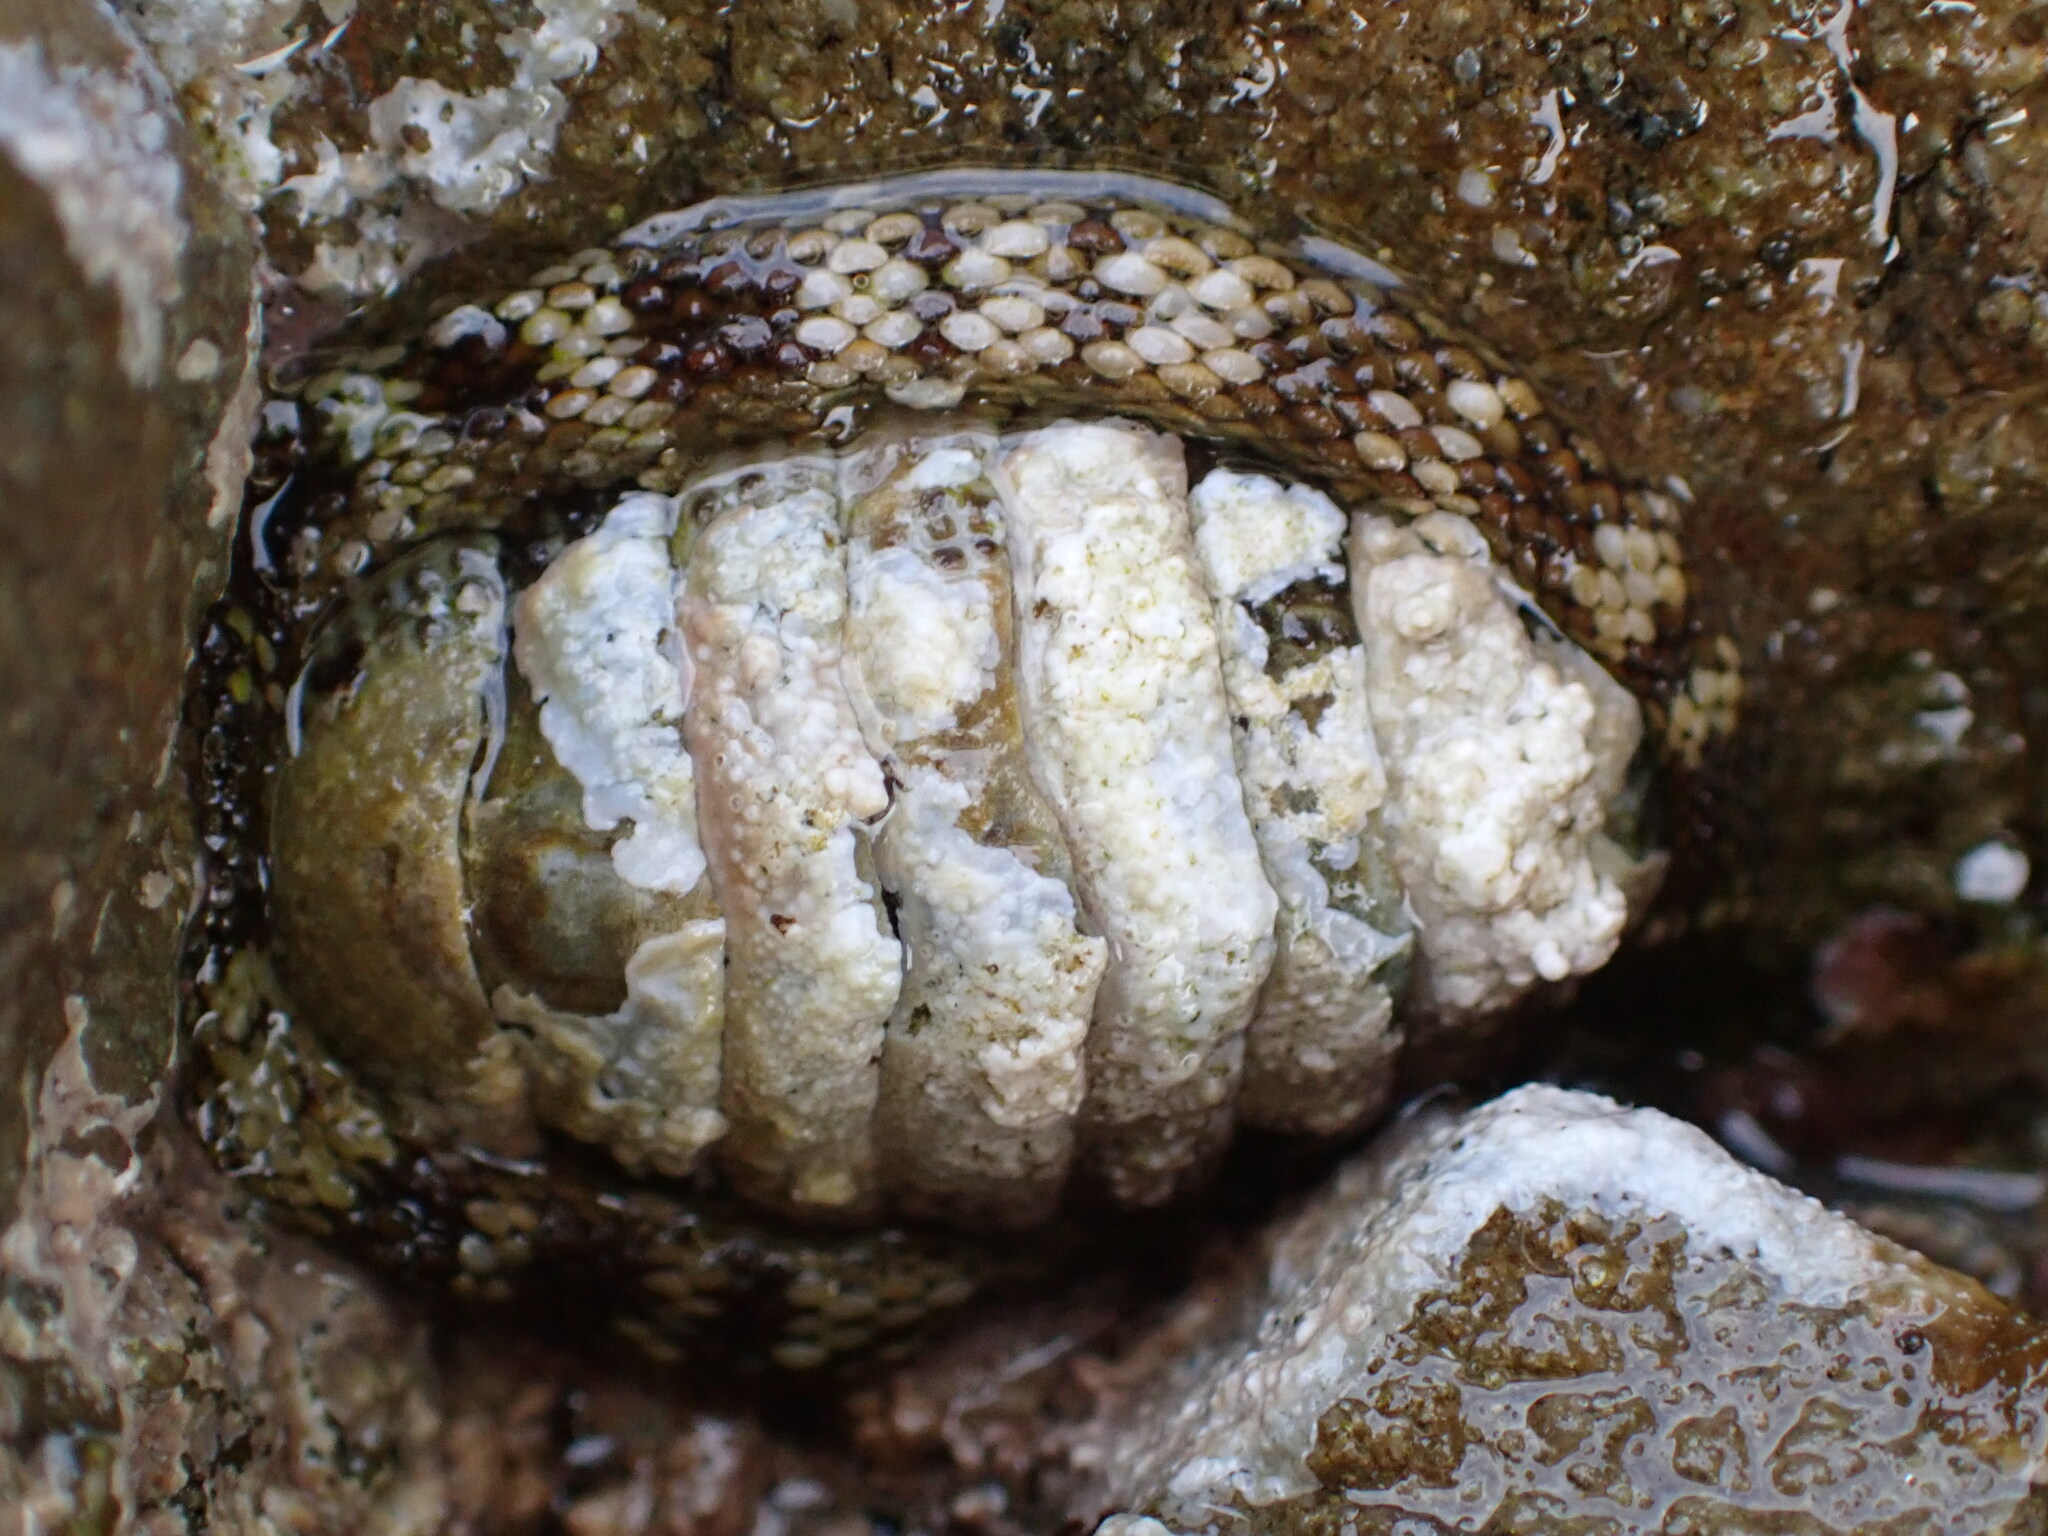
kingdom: Animalia
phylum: Mollusca
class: Polyplacophora
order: Chitonida
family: Chitonidae
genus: Sypharochiton
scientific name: Sypharochiton pelliserpentis
